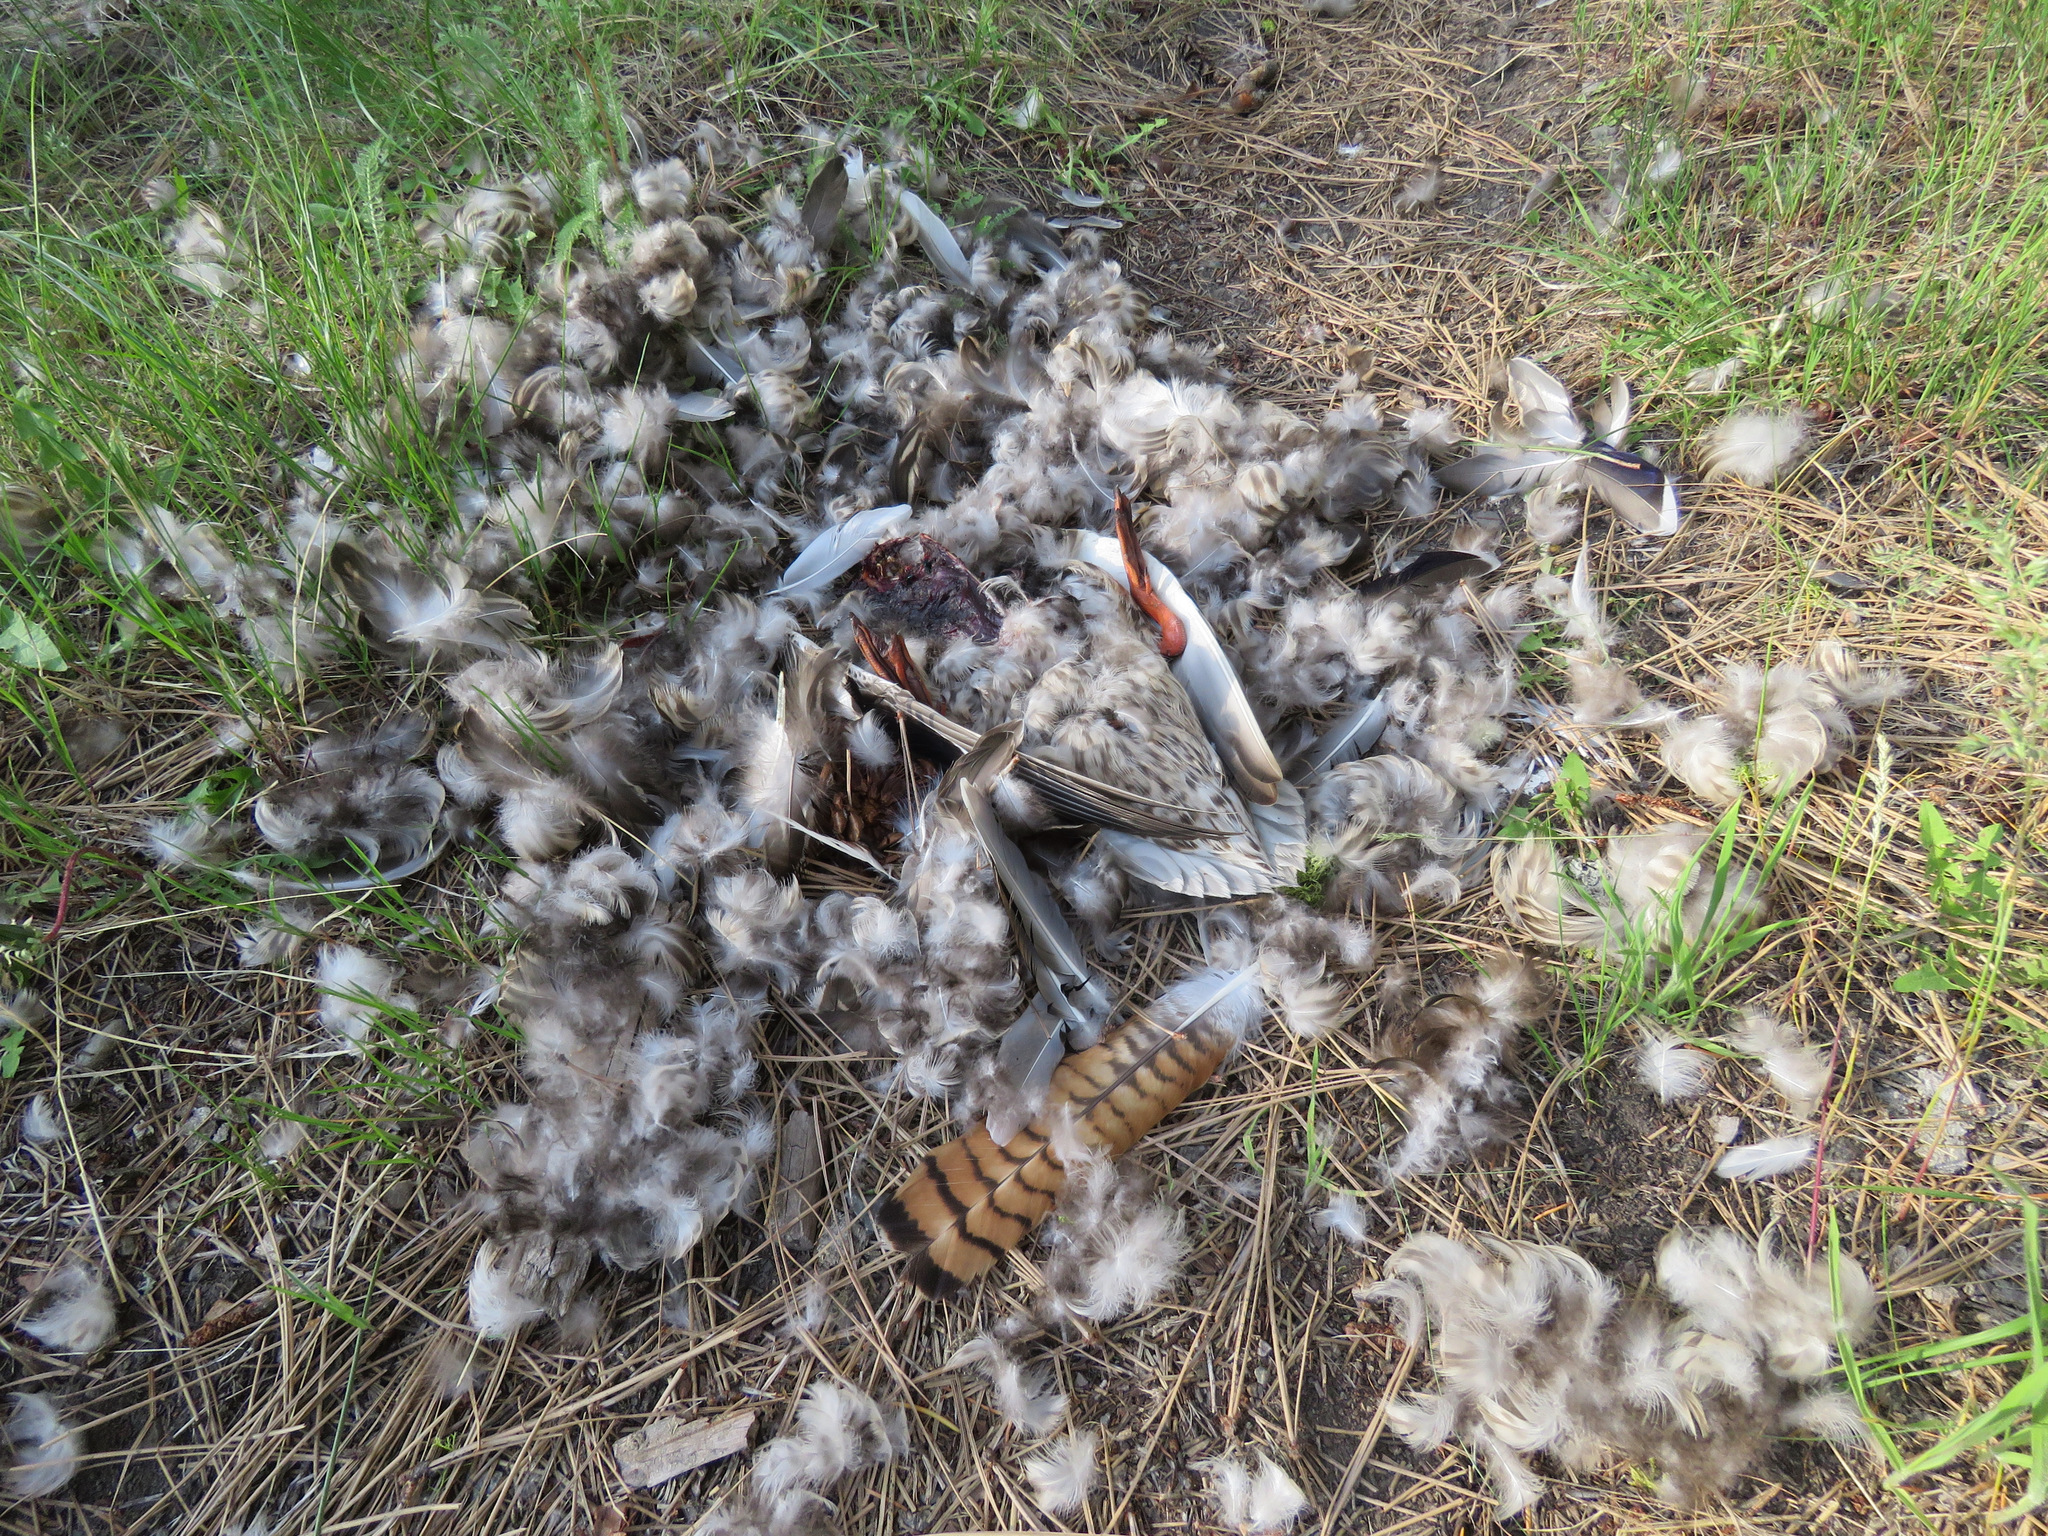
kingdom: Animalia
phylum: Chordata
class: Aves
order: Anseriformes
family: Anatidae
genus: Anas
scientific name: Anas platyrhynchos
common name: Mallard
